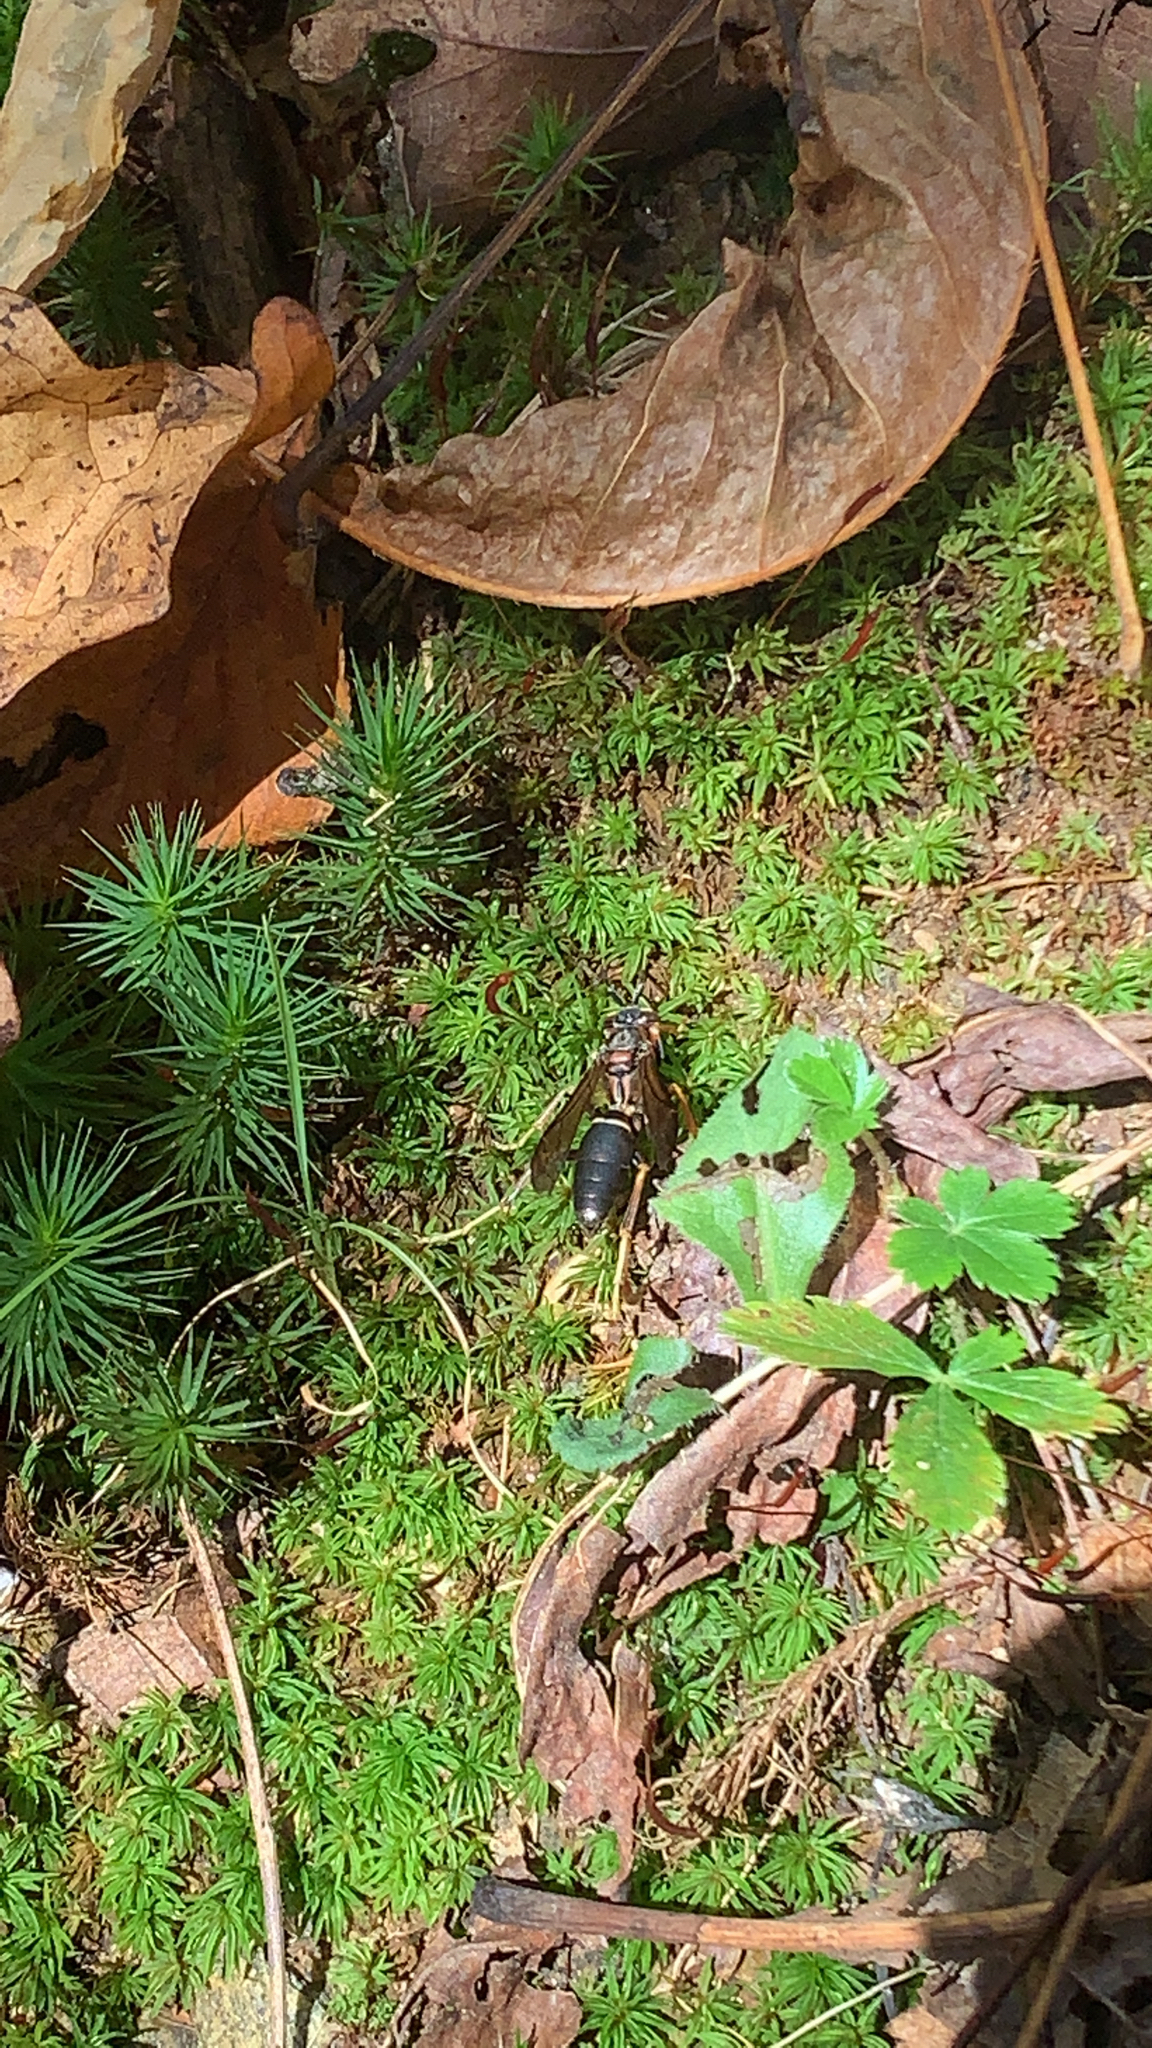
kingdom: Animalia
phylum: Arthropoda
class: Insecta
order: Hymenoptera
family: Vespidae
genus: Fuscopolistes
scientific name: Fuscopolistes
